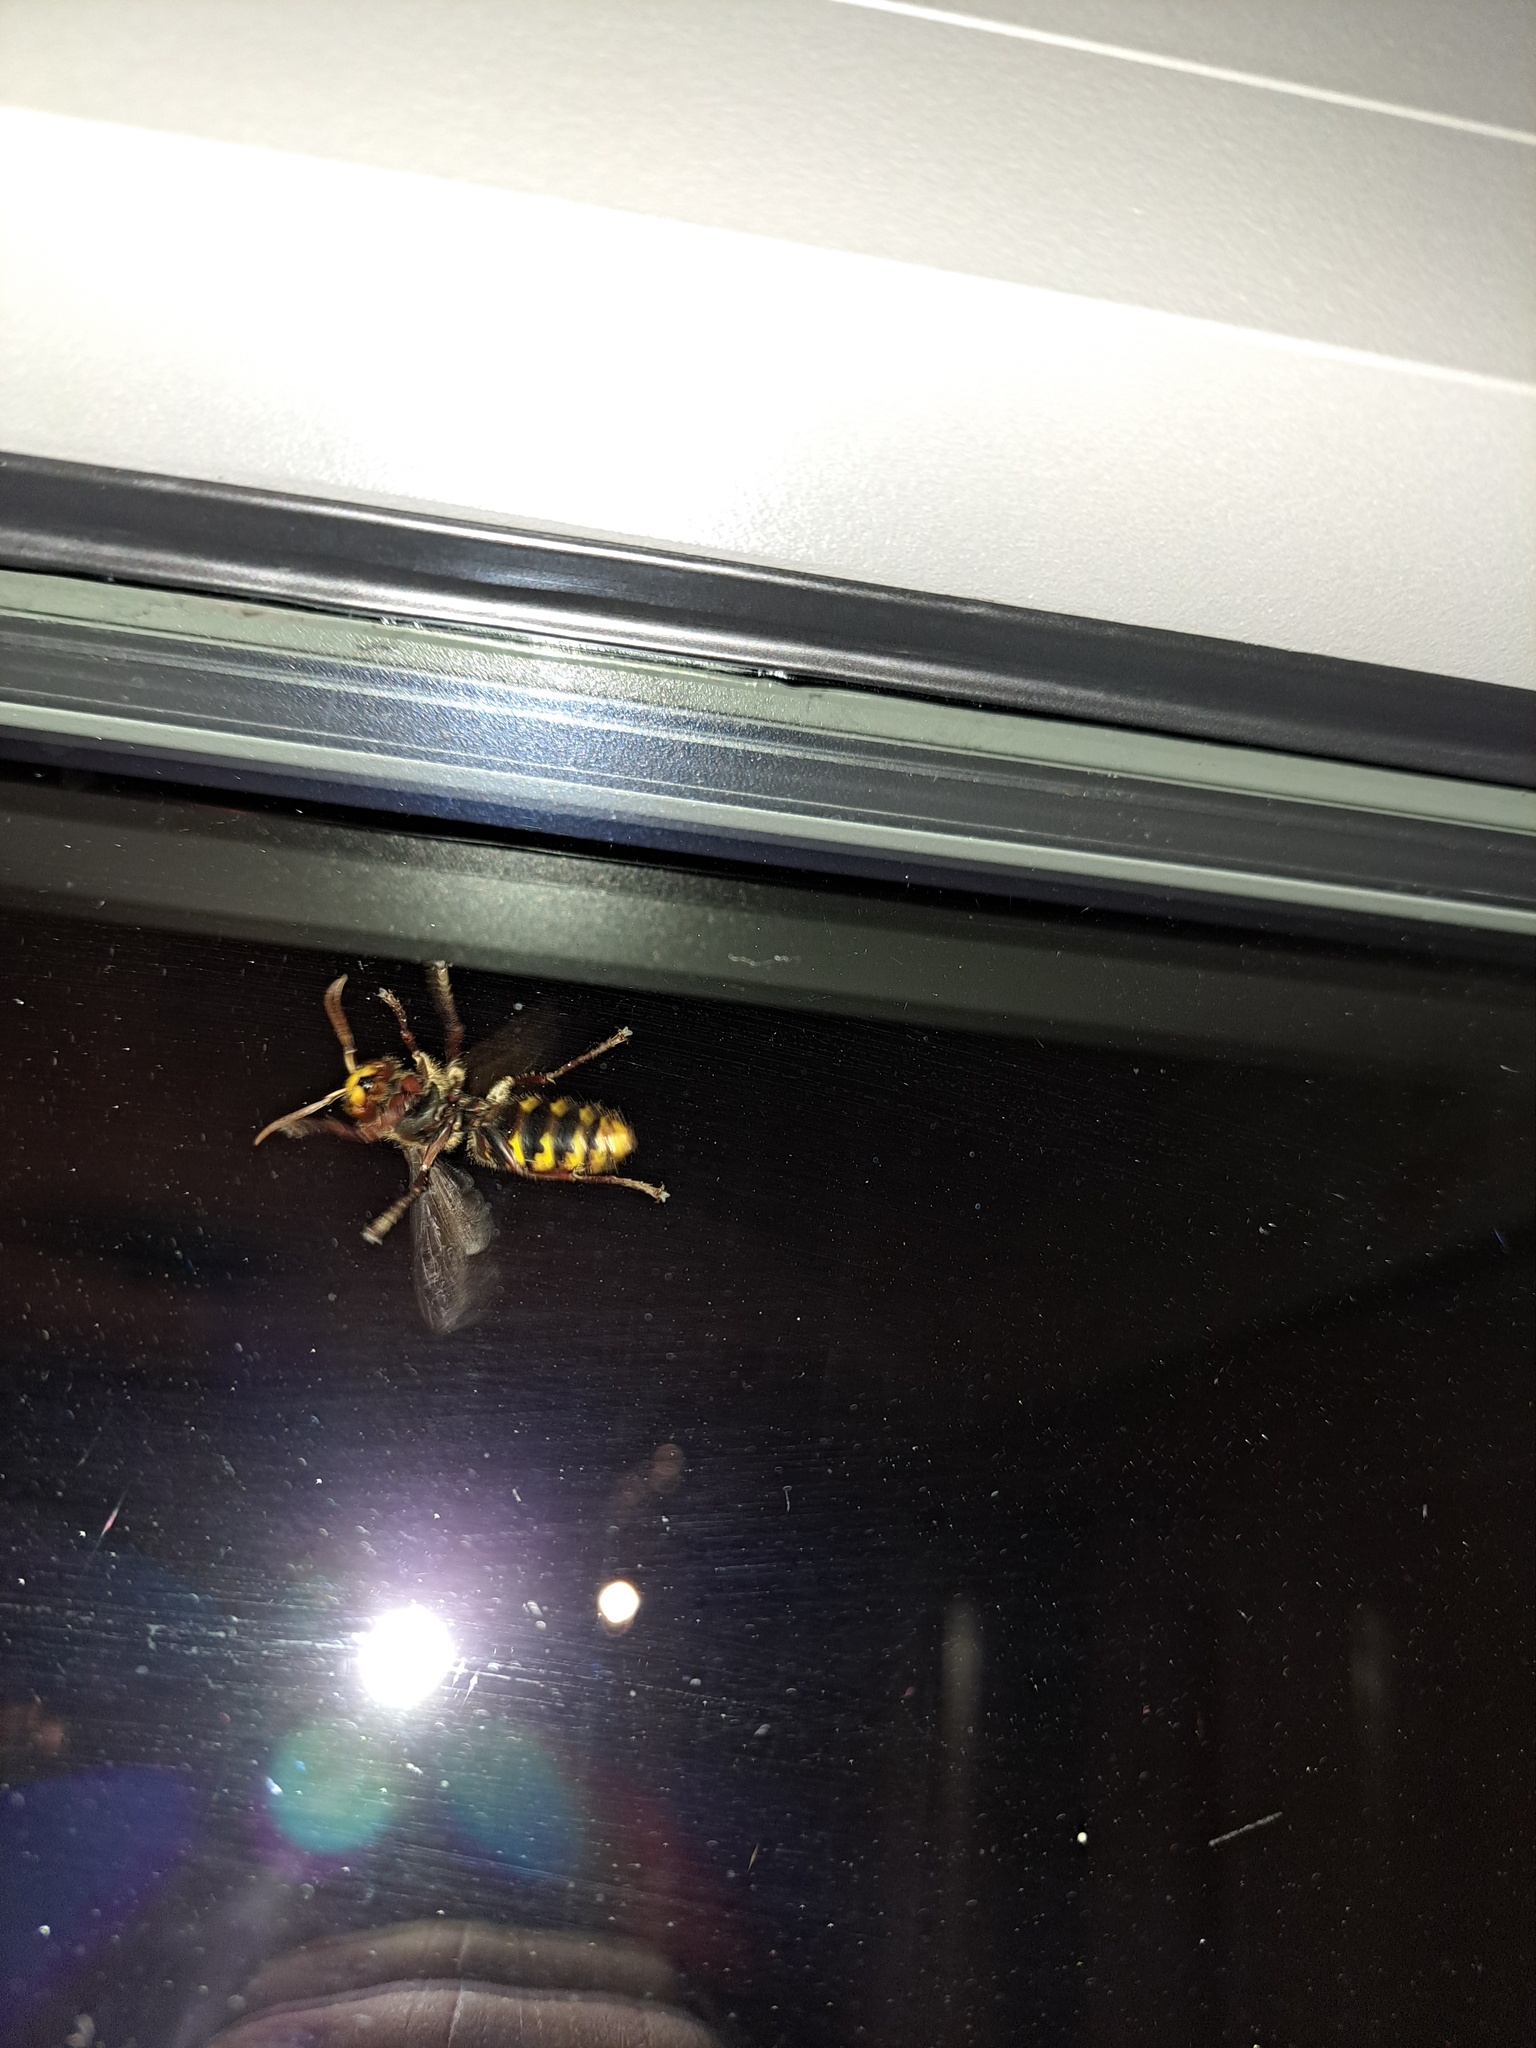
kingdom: Animalia
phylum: Arthropoda
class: Insecta
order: Hymenoptera
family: Vespidae
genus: Vespa
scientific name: Vespa crabro
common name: Hornet
